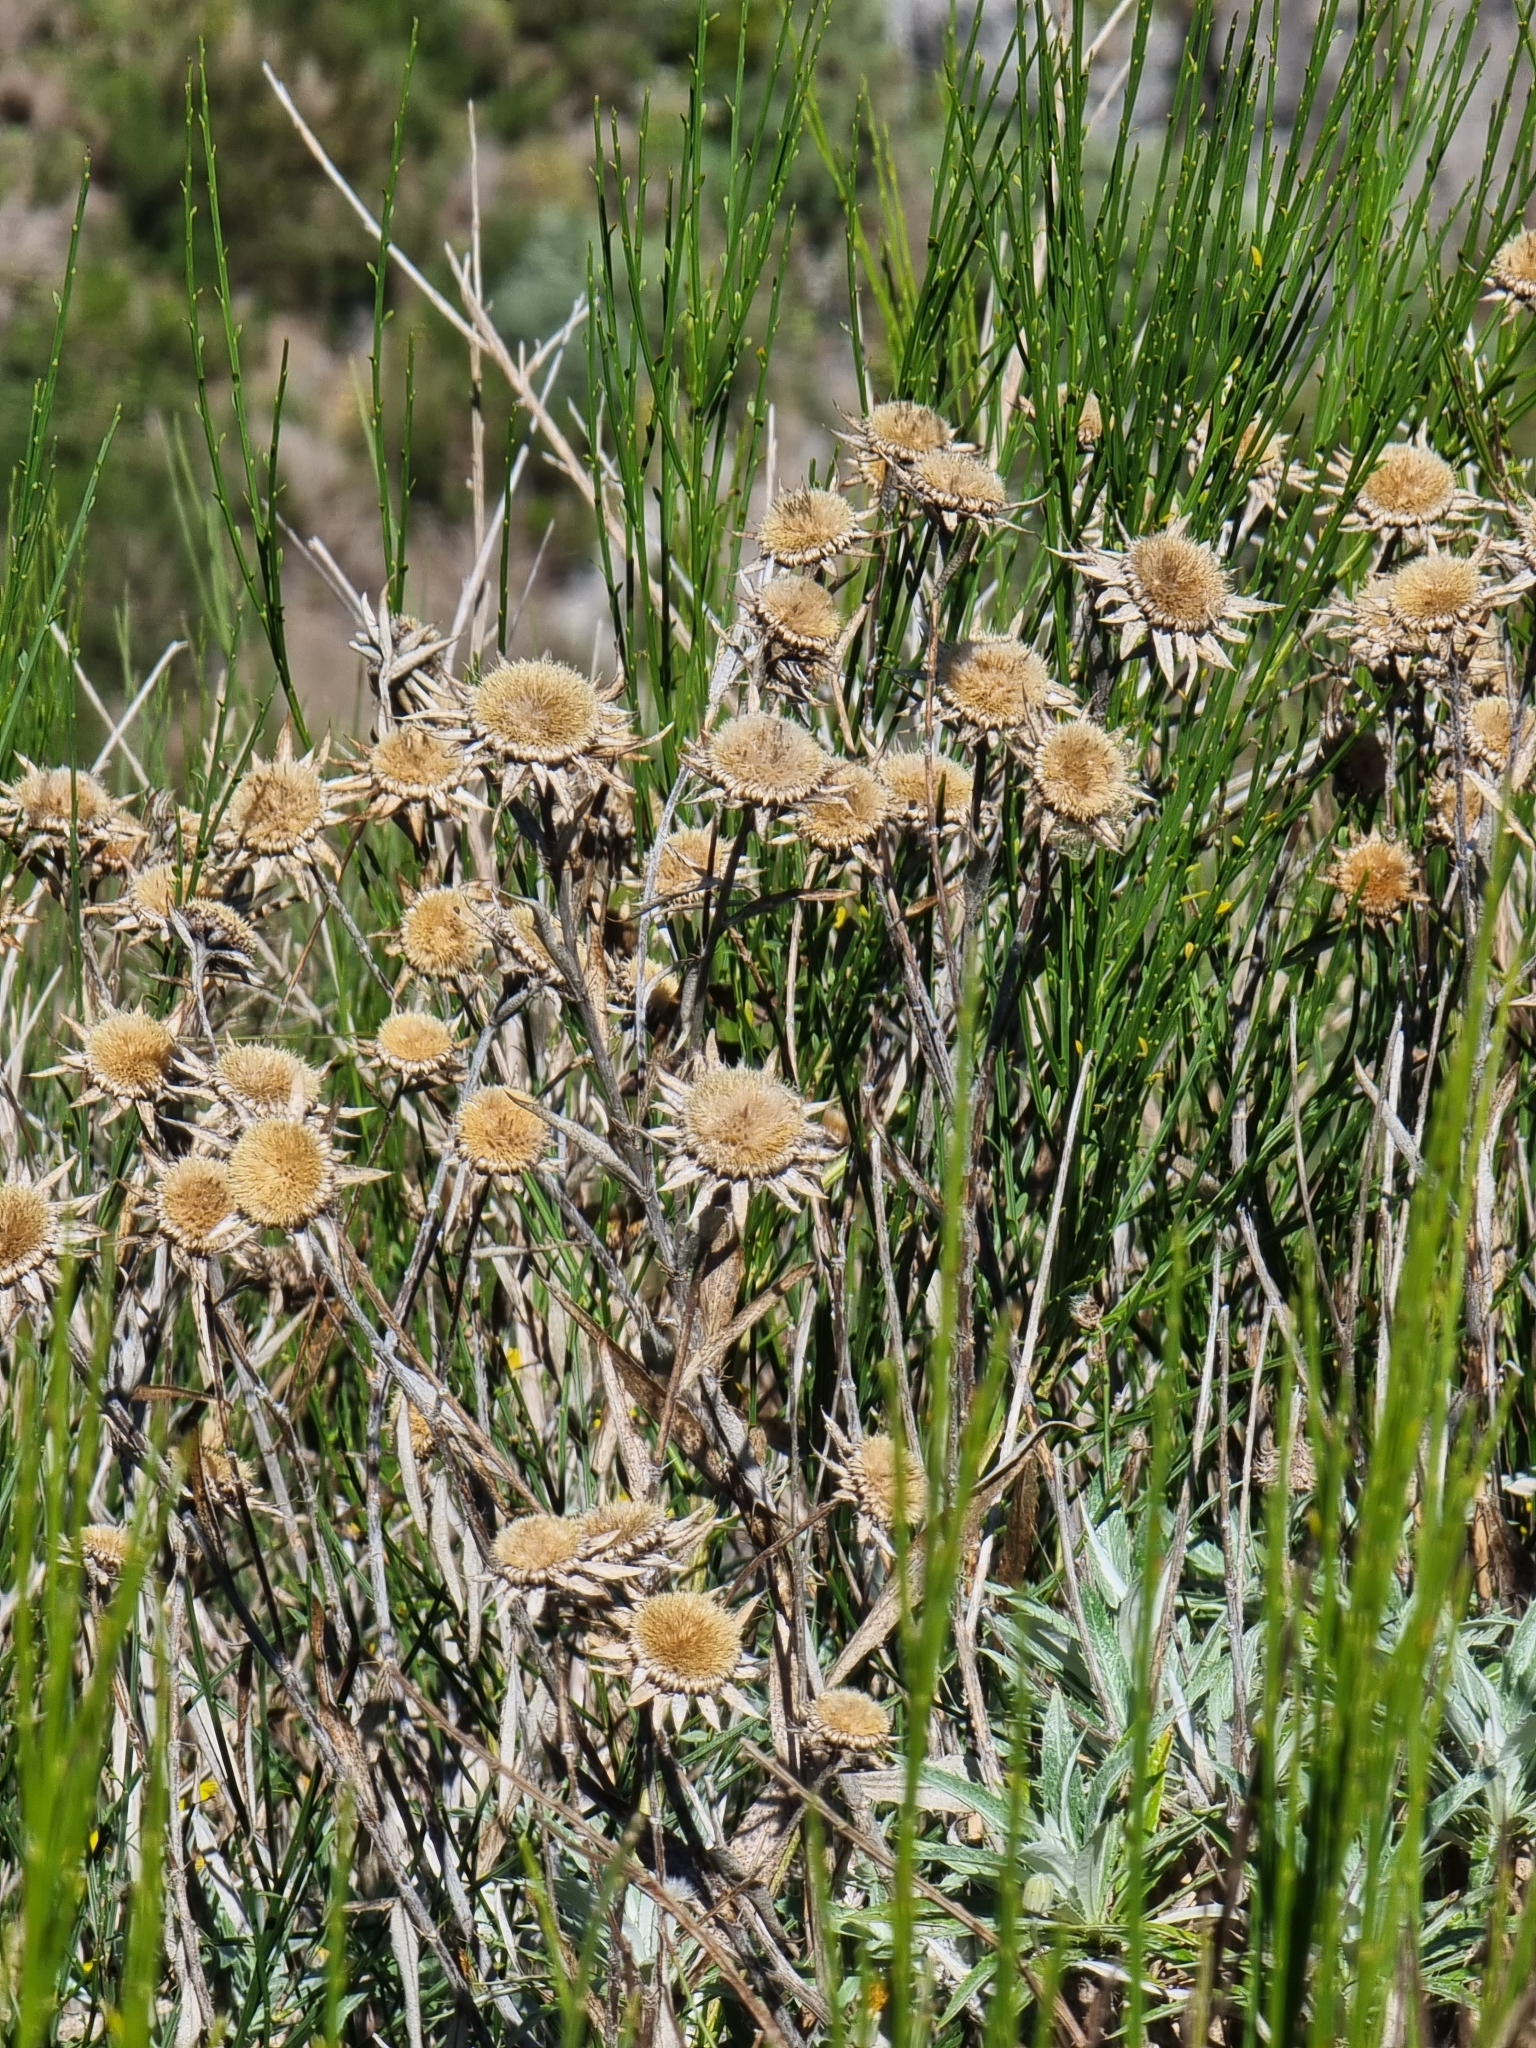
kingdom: Plantae
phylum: Tracheophyta
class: Magnoliopsida
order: Asterales
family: Asteraceae
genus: Carlina
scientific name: Carlina salicifolia
